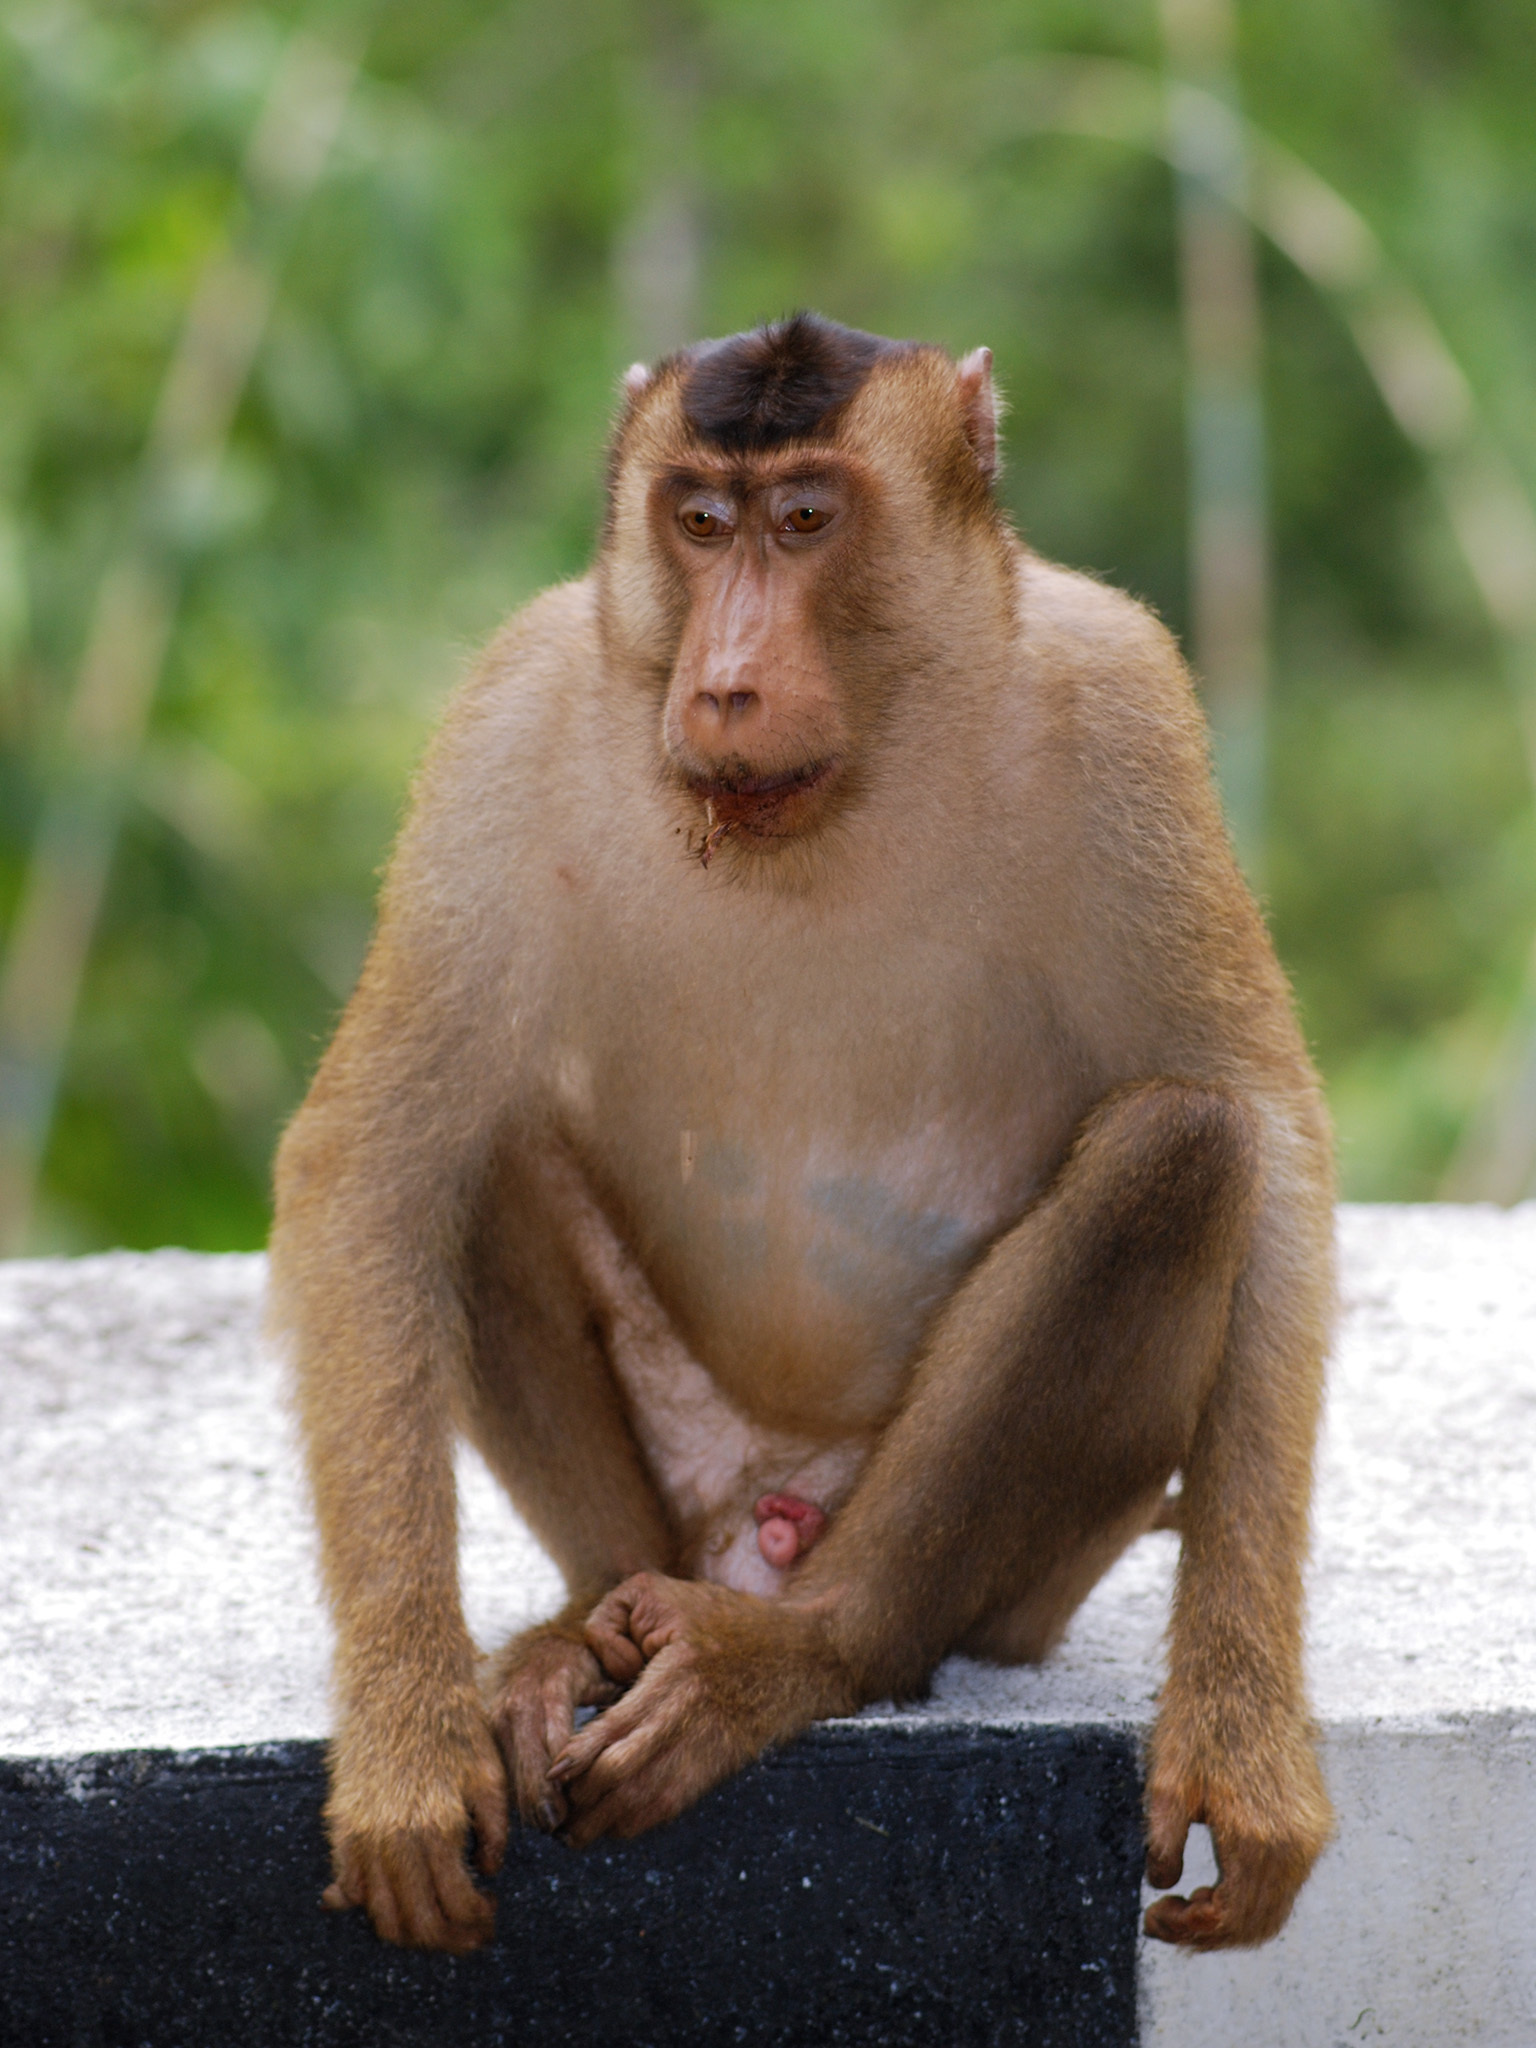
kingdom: Animalia
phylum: Chordata
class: Mammalia
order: Primates
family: Cercopithecidae
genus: Macaca
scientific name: Macaca nemestrina
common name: Southern pig-tailed macaque
